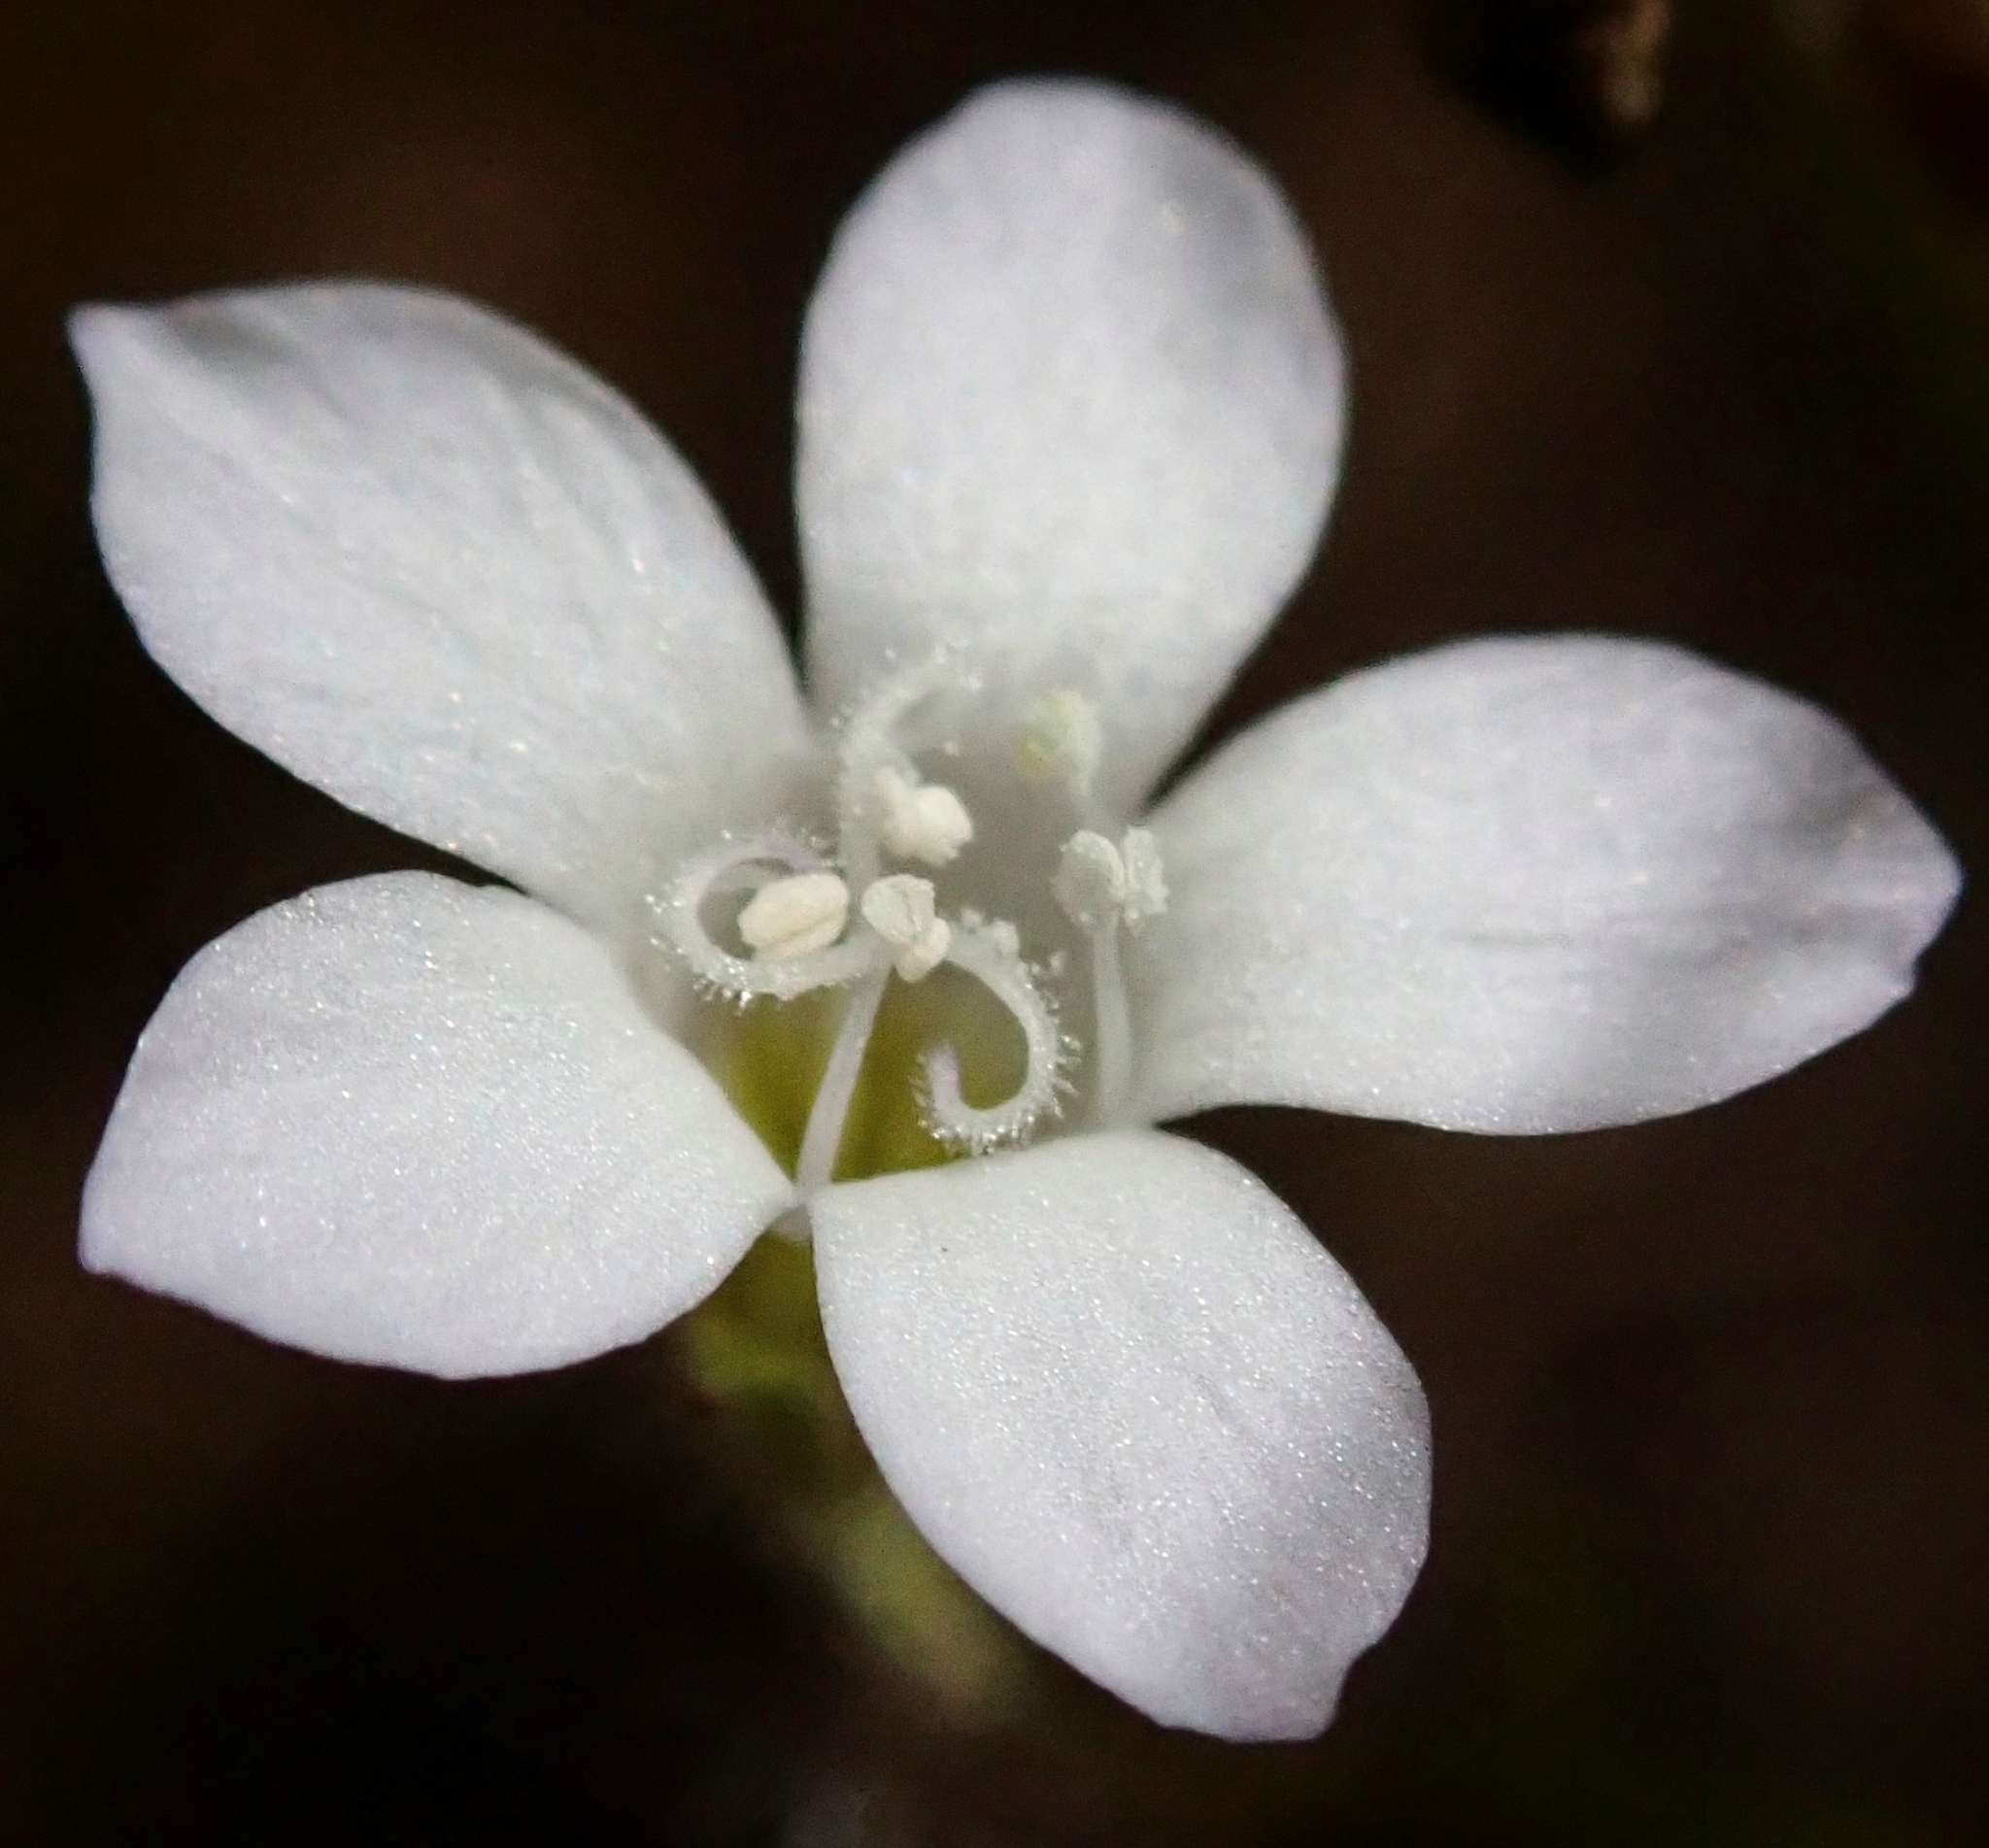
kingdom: Plantae
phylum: Tracheophyta
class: Magnoliopsida
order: Ericales
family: Polemoniaceae
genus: Gilia
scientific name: Gilia angelensis
